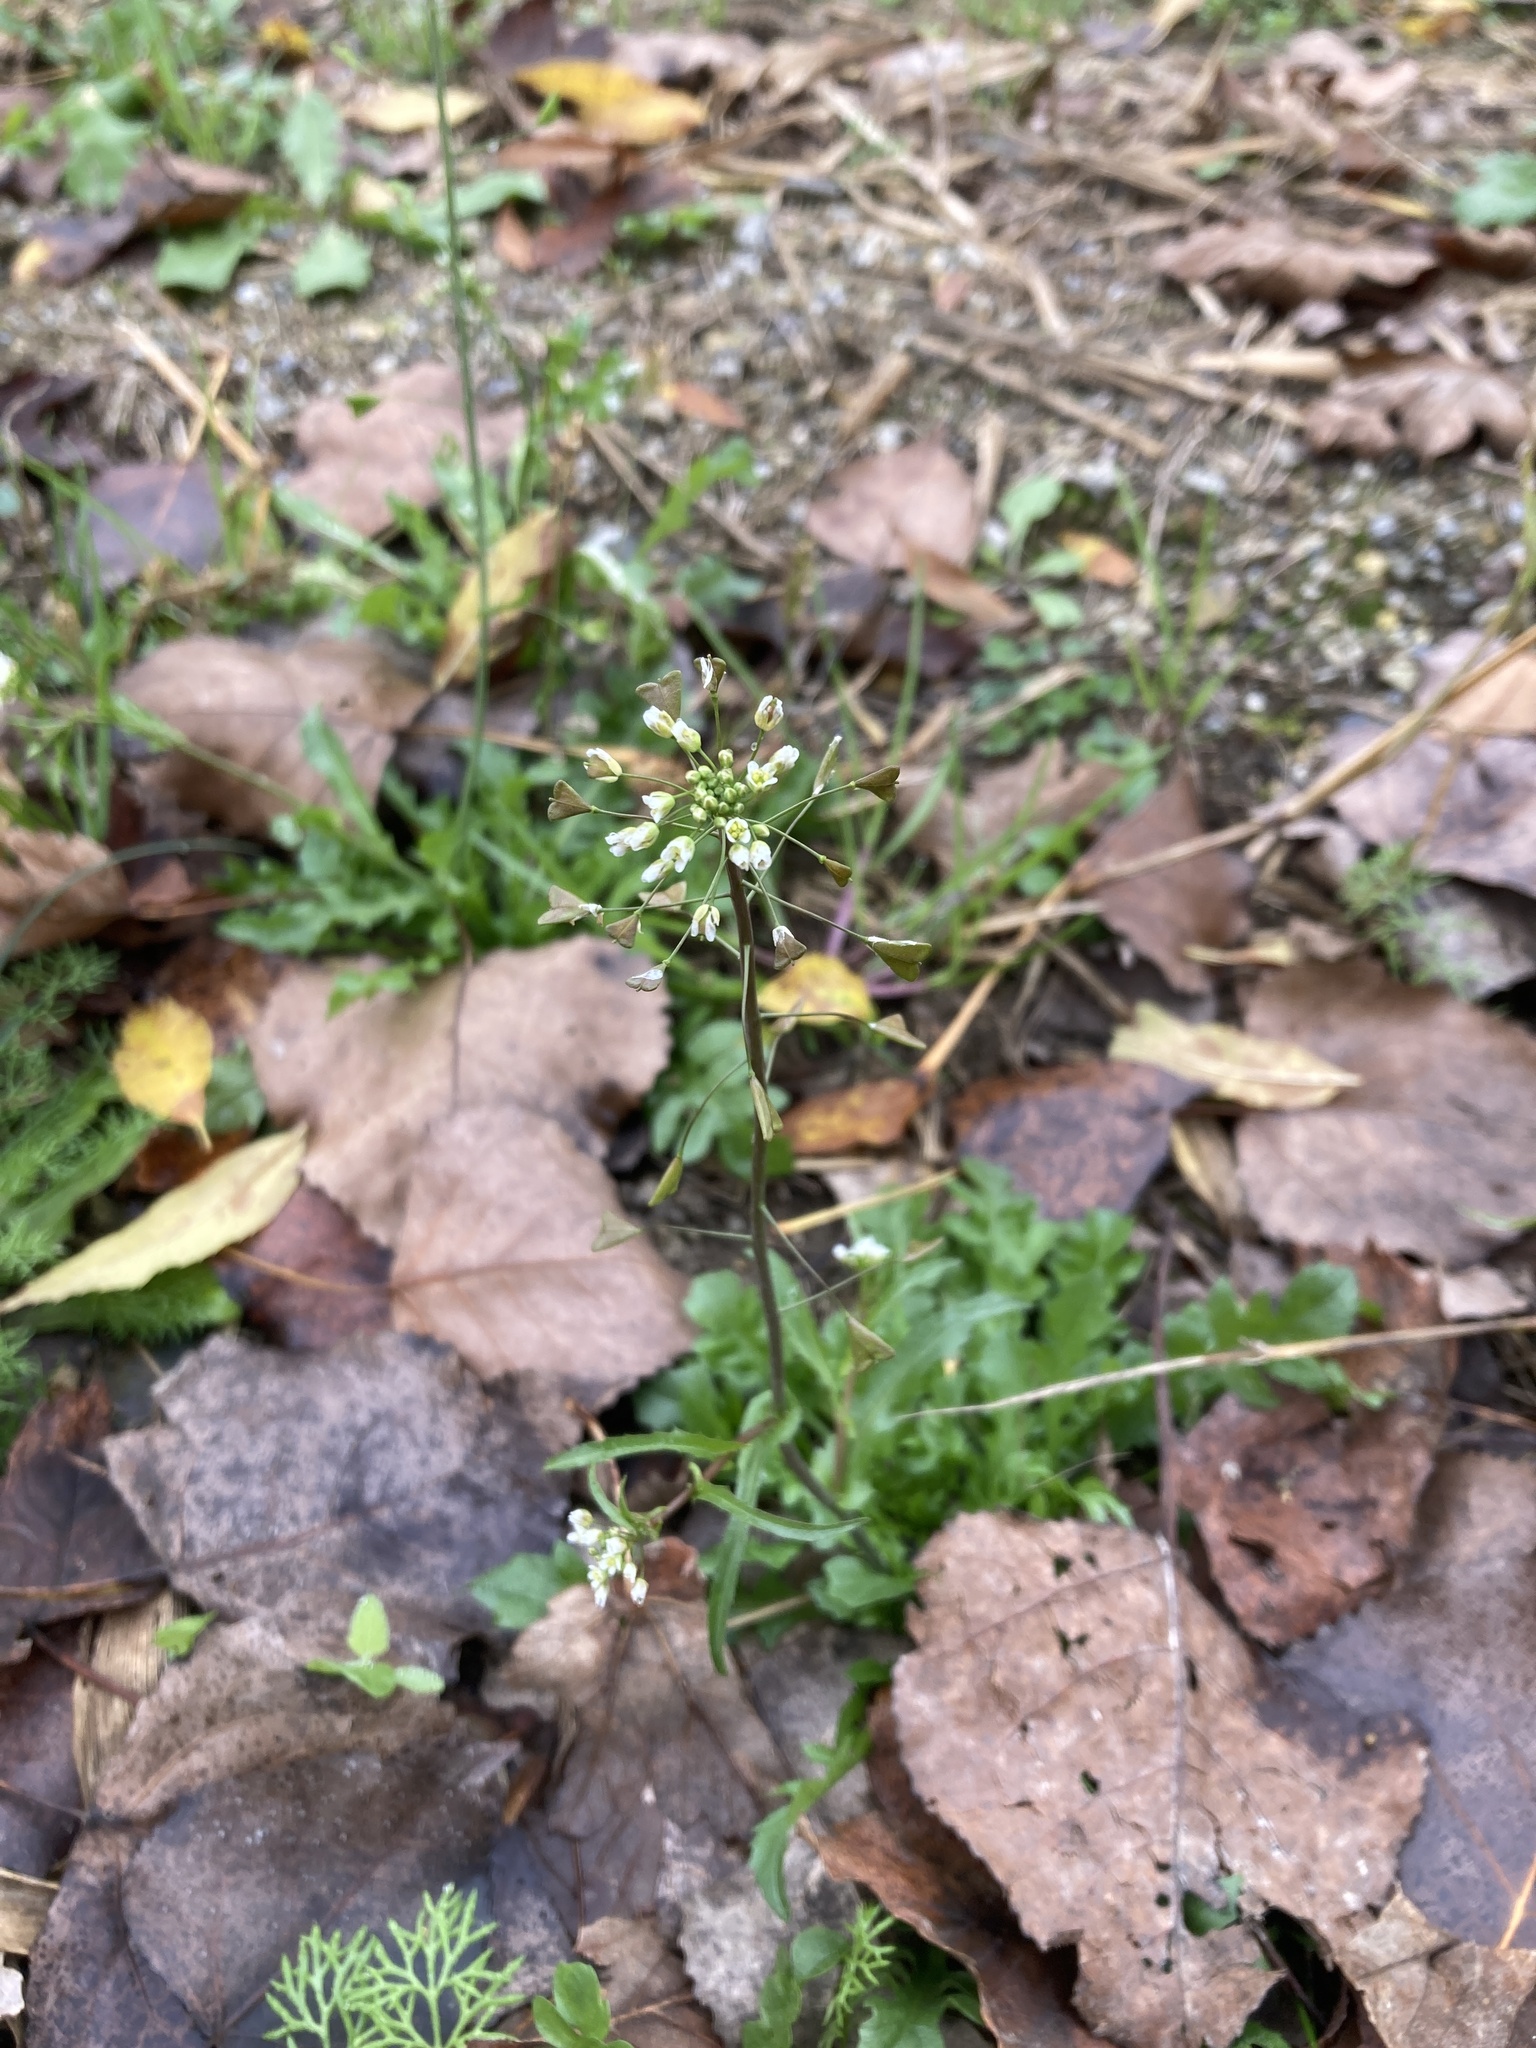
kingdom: Plantae
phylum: Tracheophyta
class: Magnoliopsida
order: Brassicales
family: Brassicaceae
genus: Capsella
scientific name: Capsella bursa-pastoris
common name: Shepherd's purse
